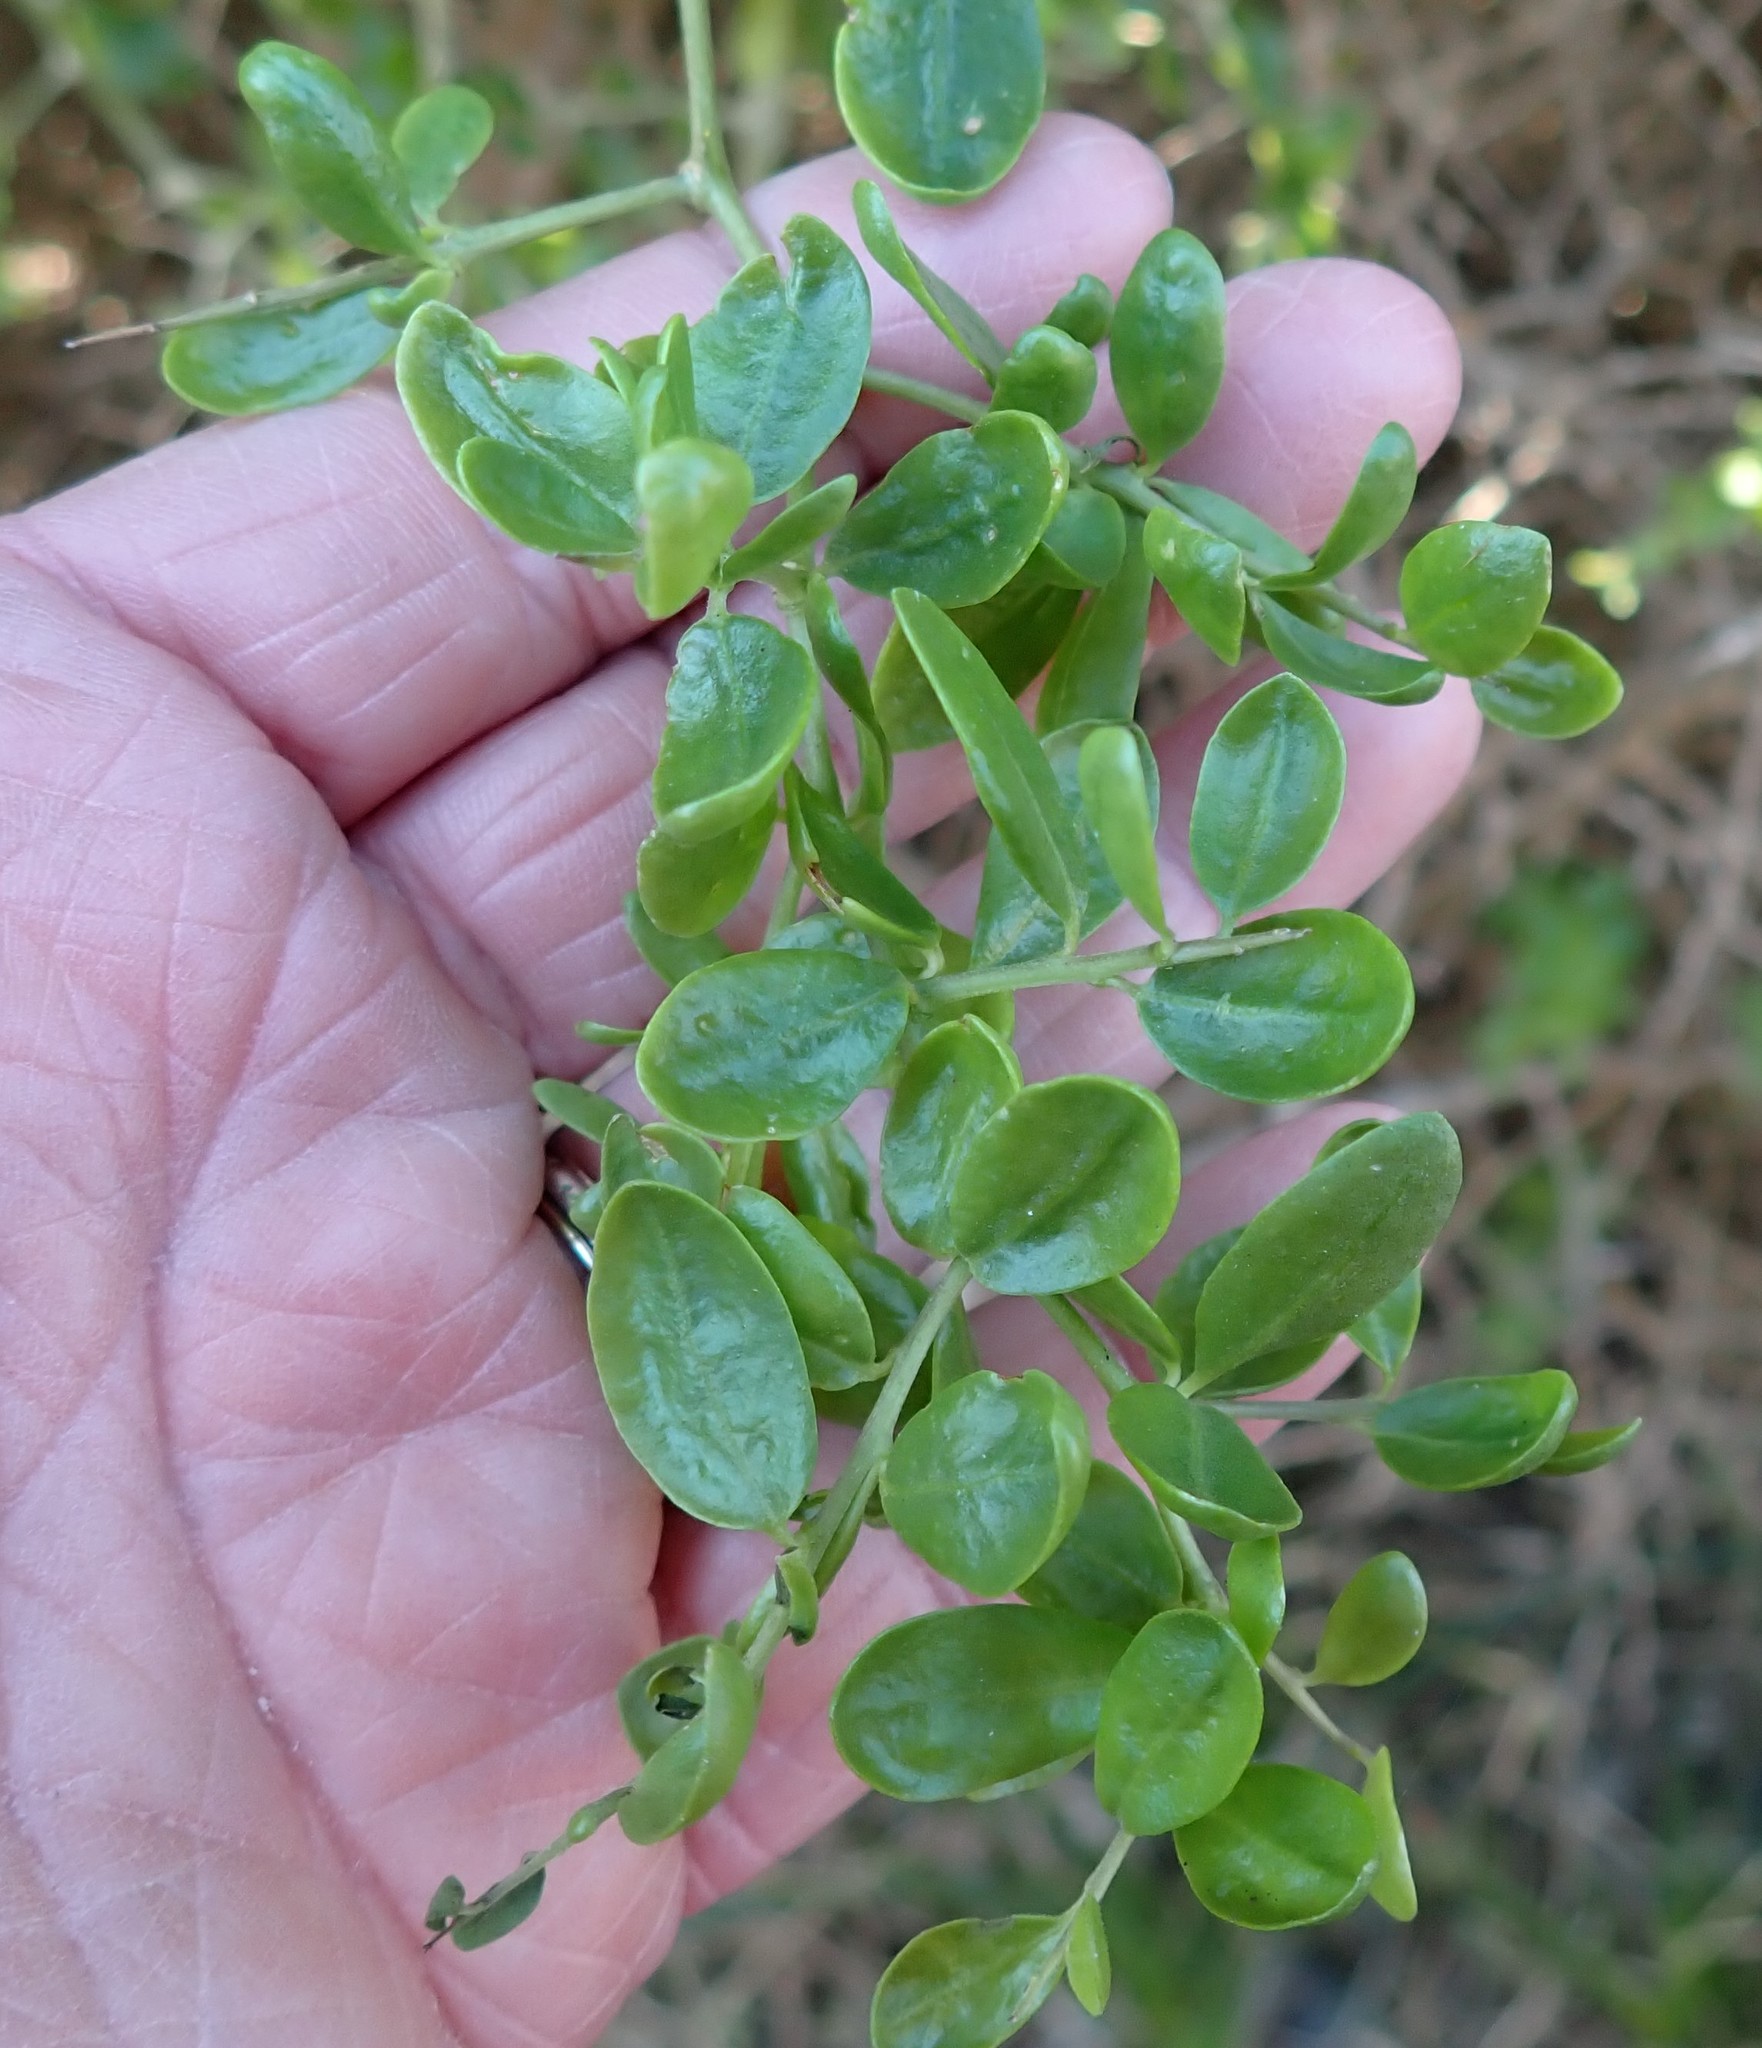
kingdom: Plantae
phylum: Tracheophyta
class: Magnoliopsida
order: Solanales
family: Solanaceae
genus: Lycium
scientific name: Lycium ferocissimum
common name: African boxthorn
